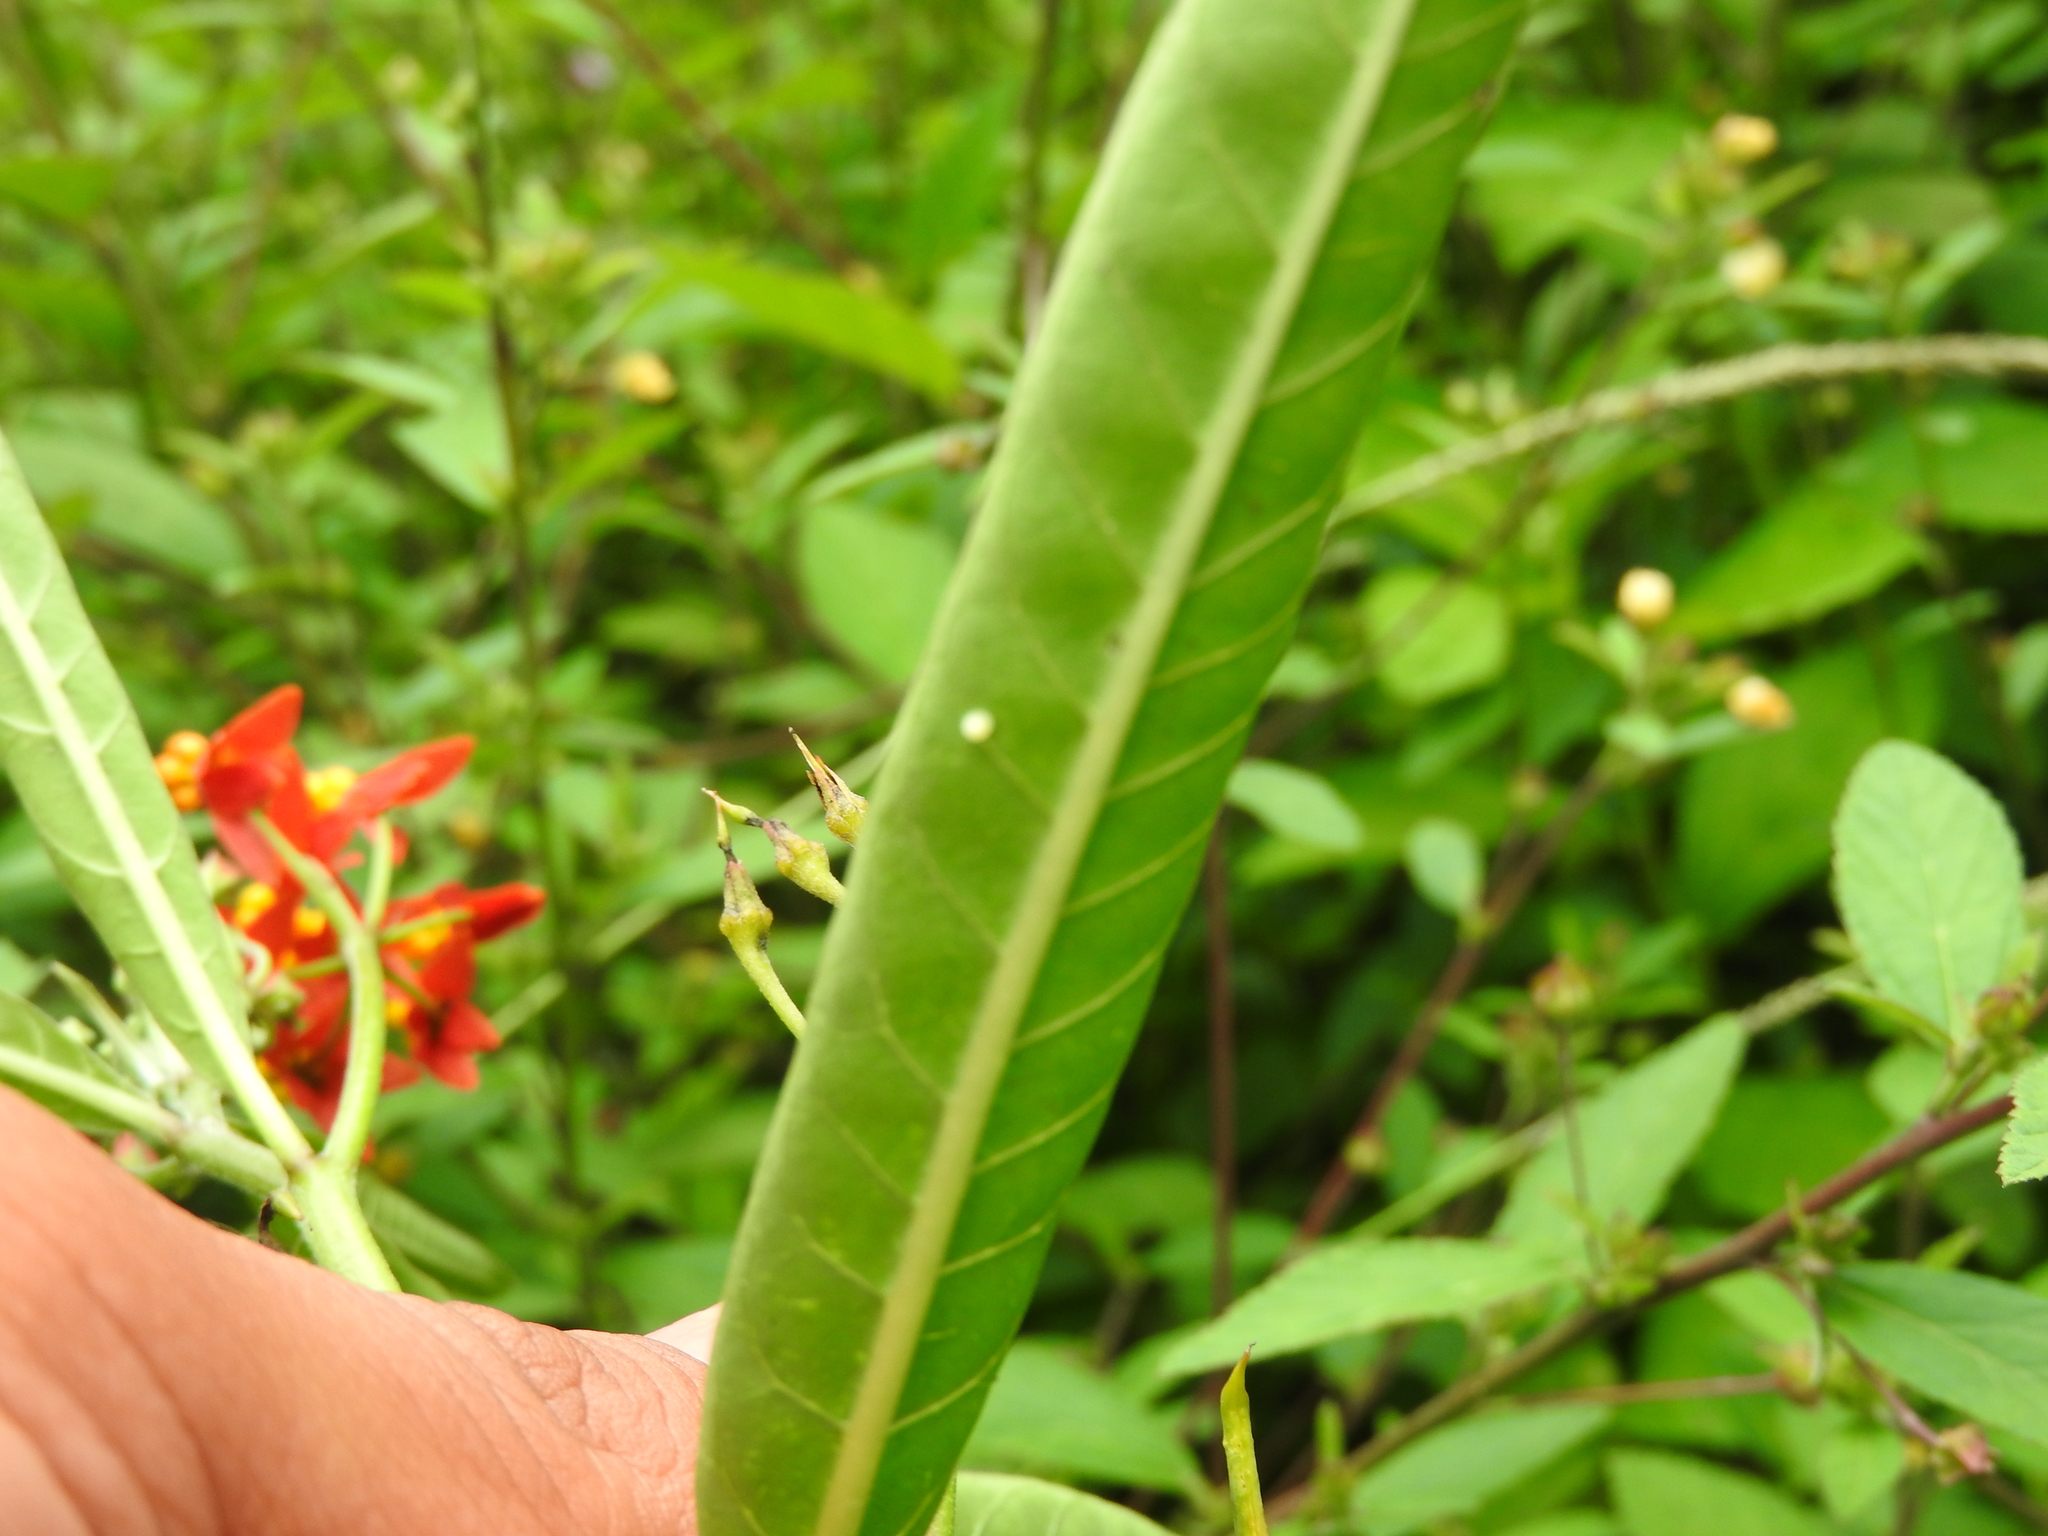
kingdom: Animalia
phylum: Arthropoda
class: Insecta
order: Lepidoptera
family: Nymphalidae
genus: Danaus
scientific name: Danaus plexippus
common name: Monarch
